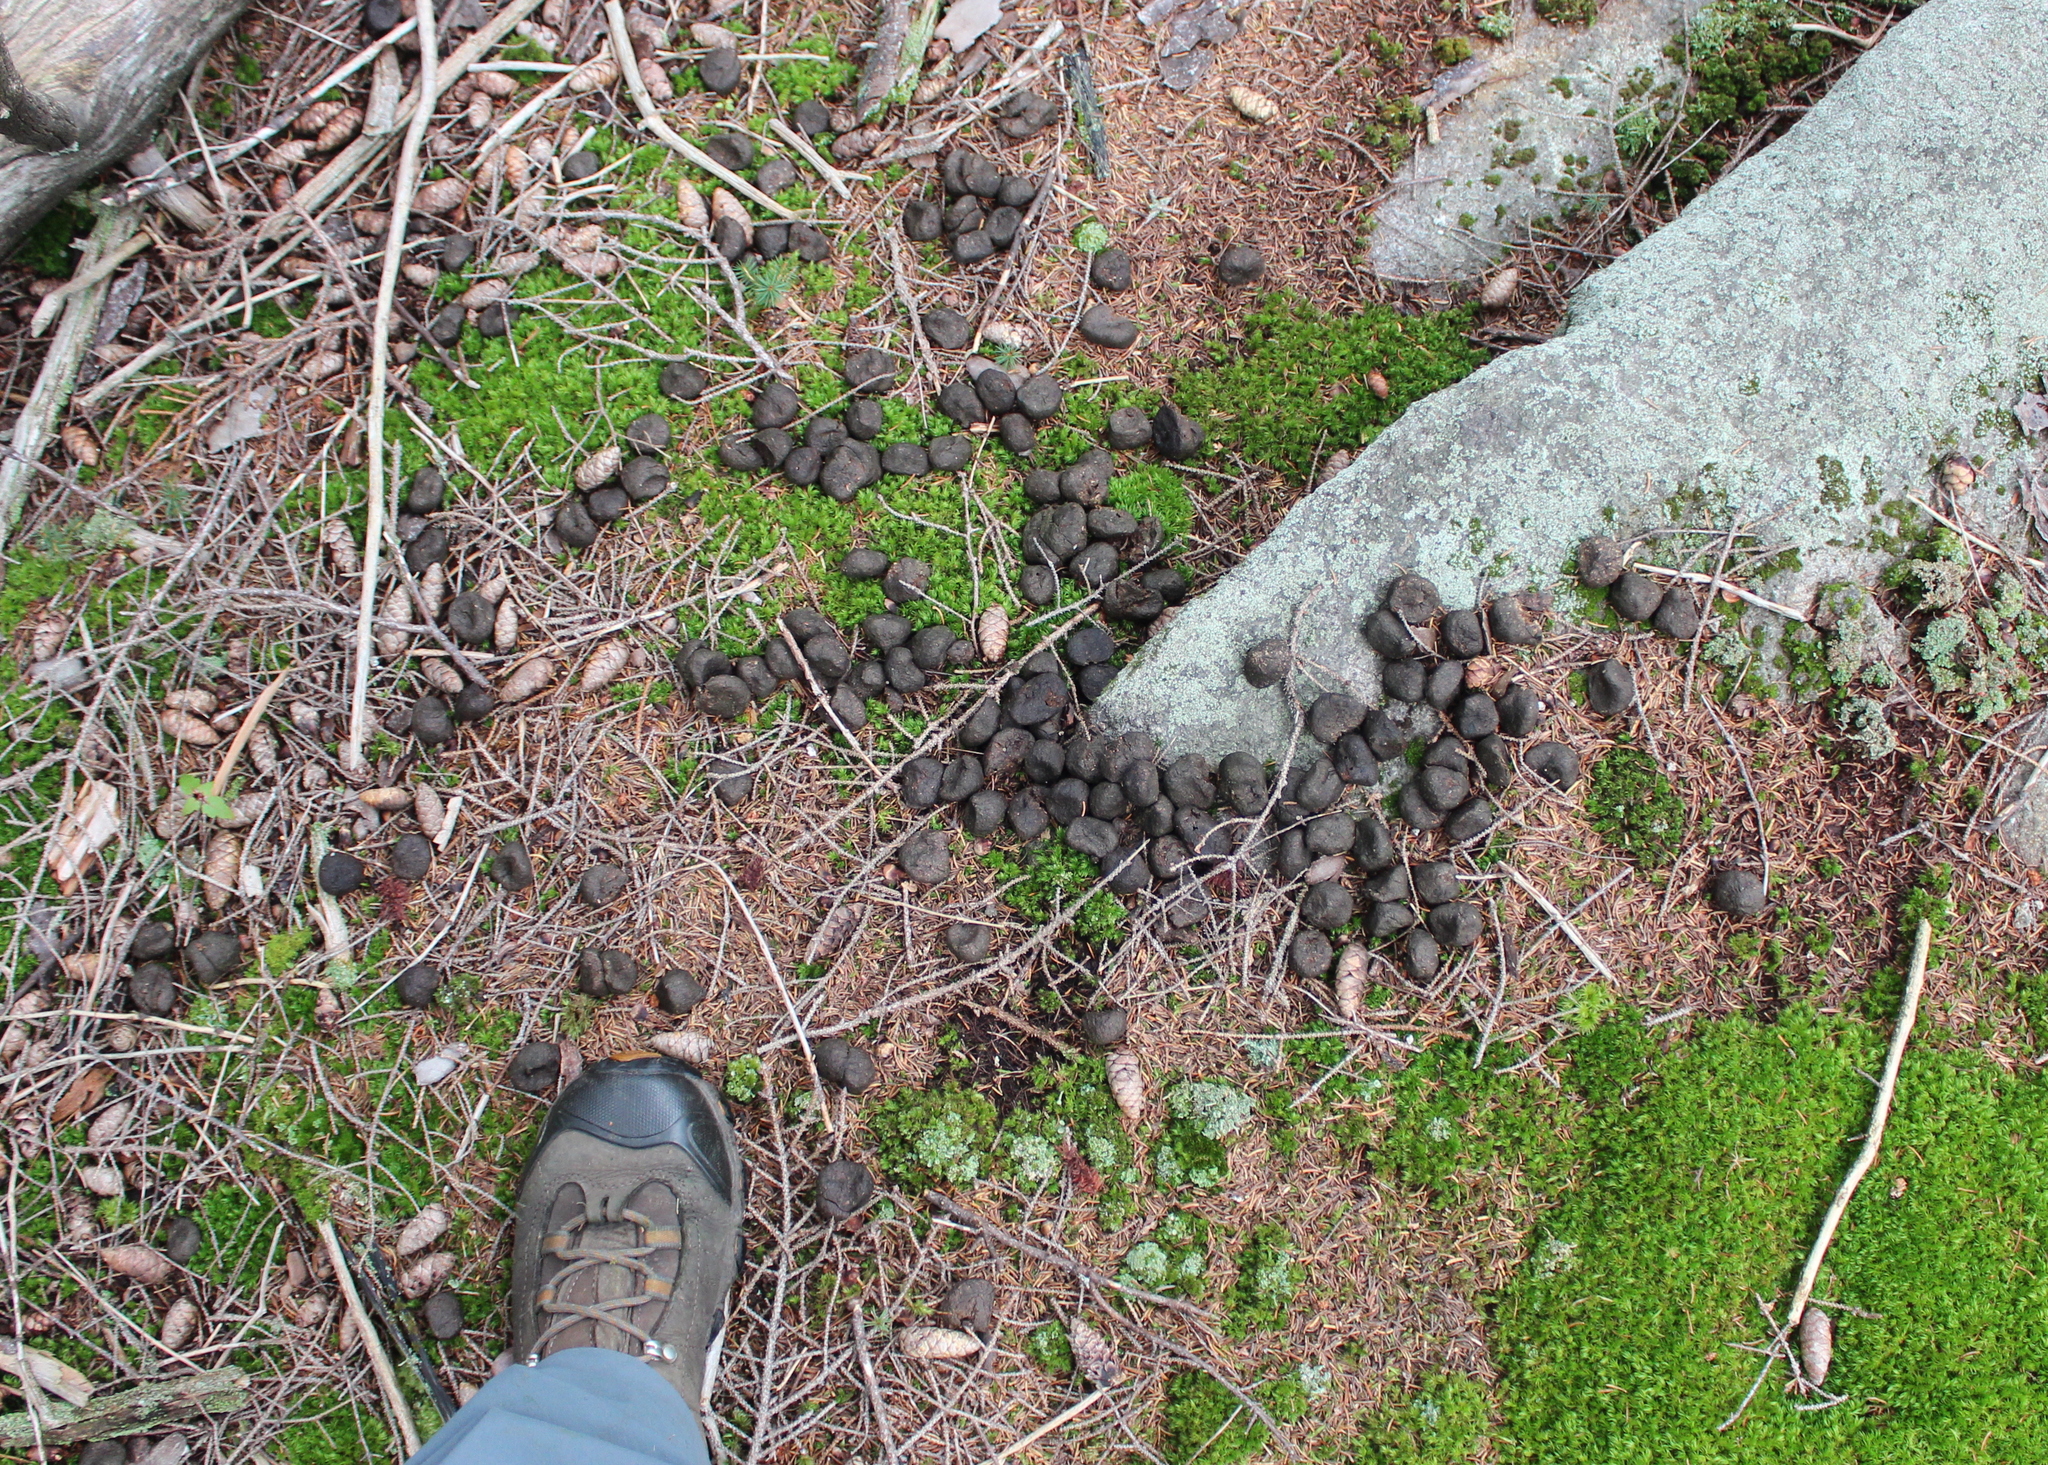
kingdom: Animalia
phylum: Chordata
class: Mammalia
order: Artiodactyla
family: Cervidae
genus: Alces
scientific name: Alces alces
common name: Moose
